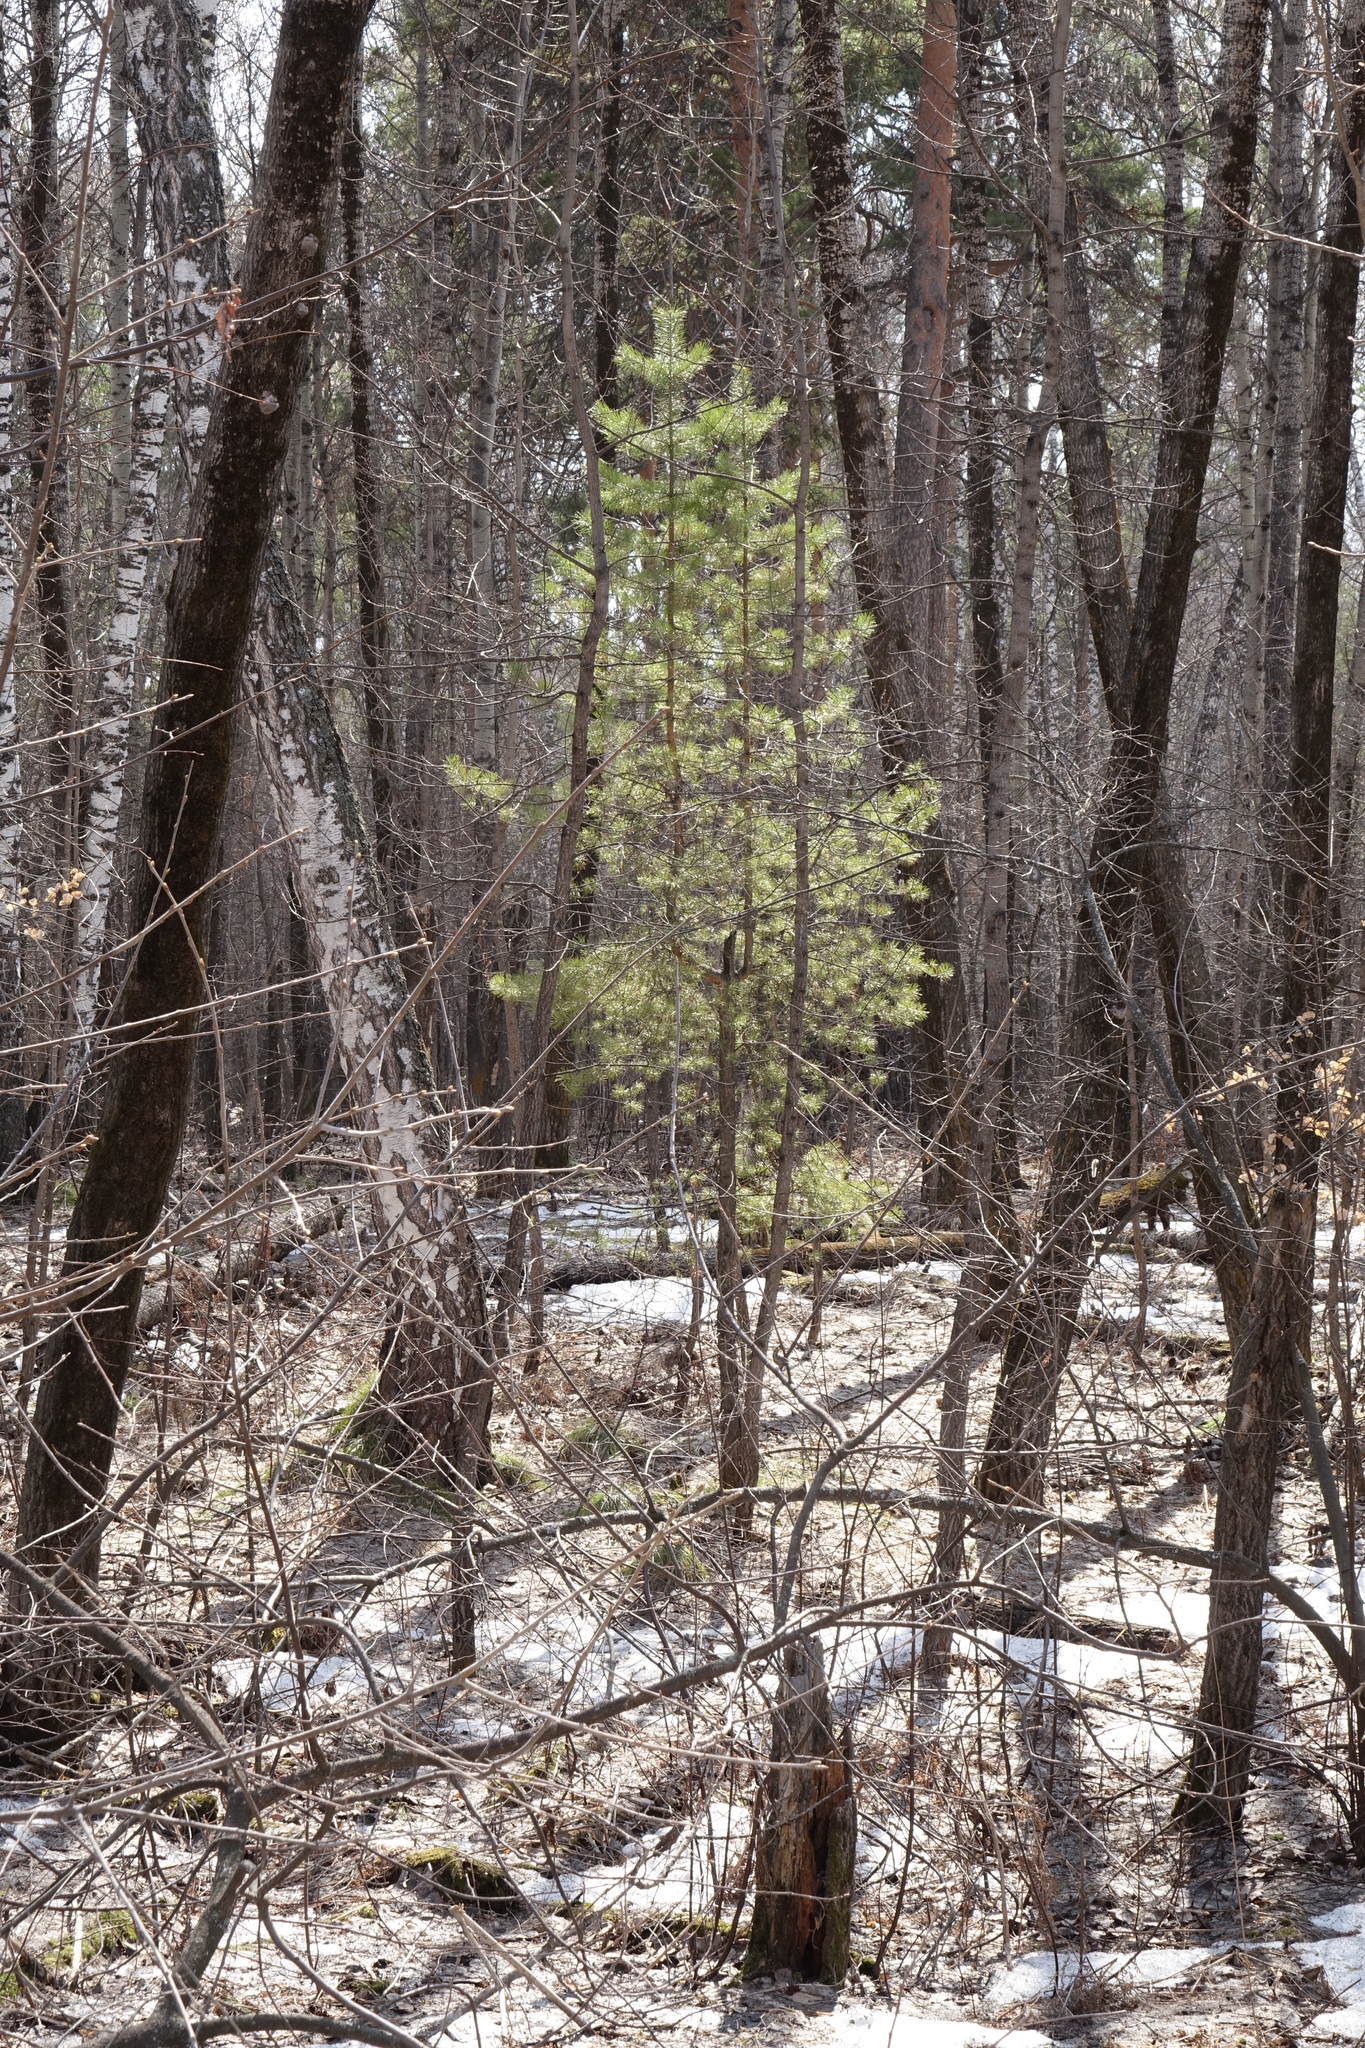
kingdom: Plantae
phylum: Tracheophyta
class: Pinopsida
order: Pinales
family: Pinaceae
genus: Pinus
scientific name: Pinus sylvestris
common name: Scots pine
